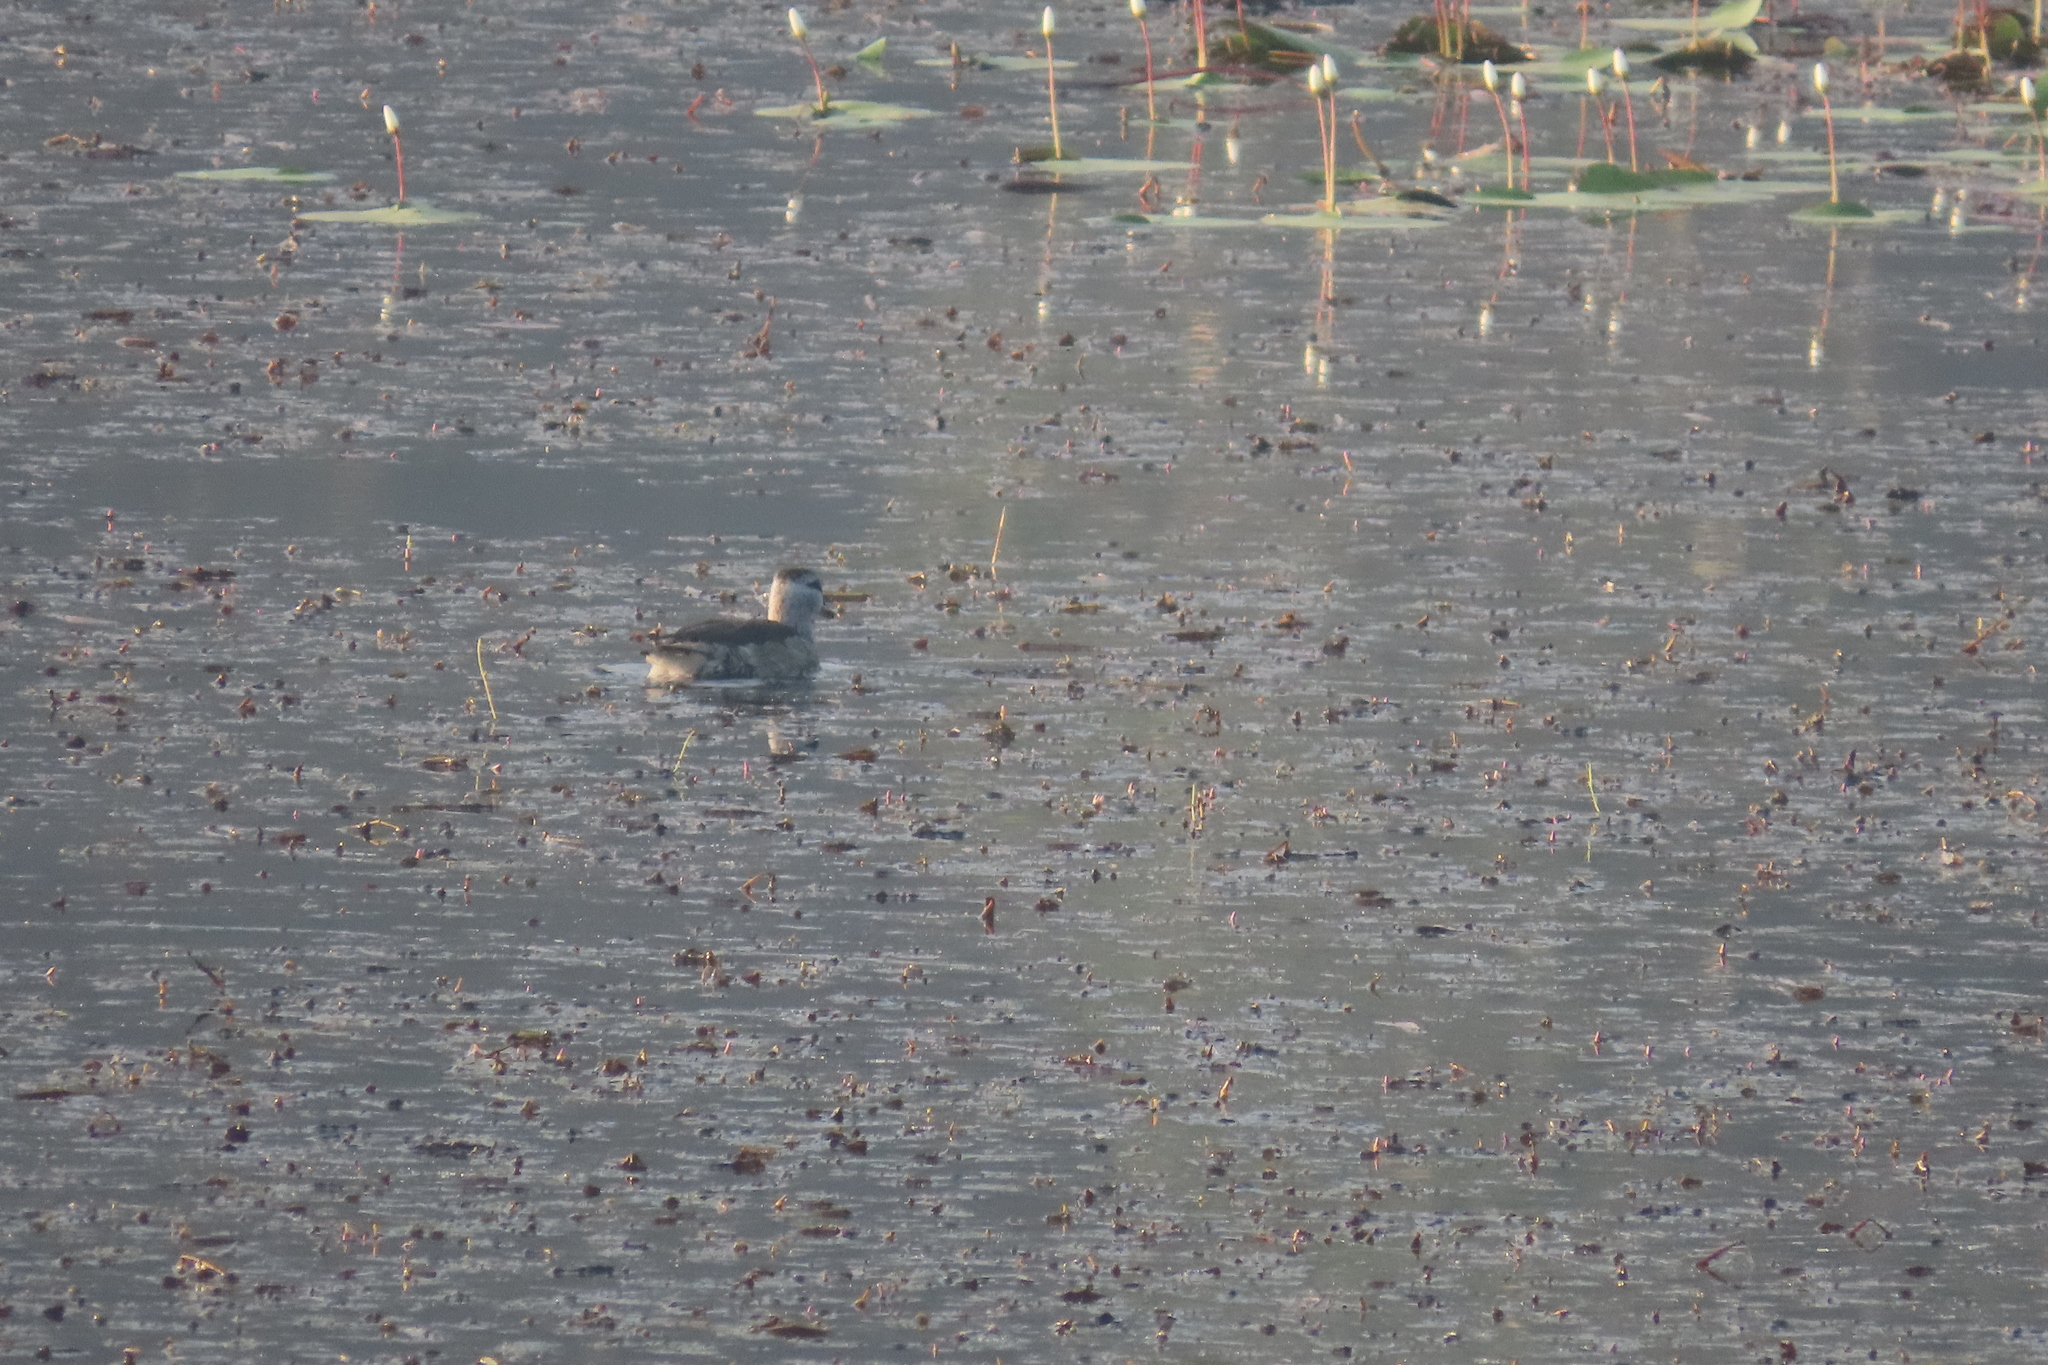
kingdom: Animalia
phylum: Chordata
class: Aves
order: Anseriformes
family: Anatidae
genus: Nettapus
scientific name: Nettapus coromandelianus
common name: Cotton pygmy-goose
